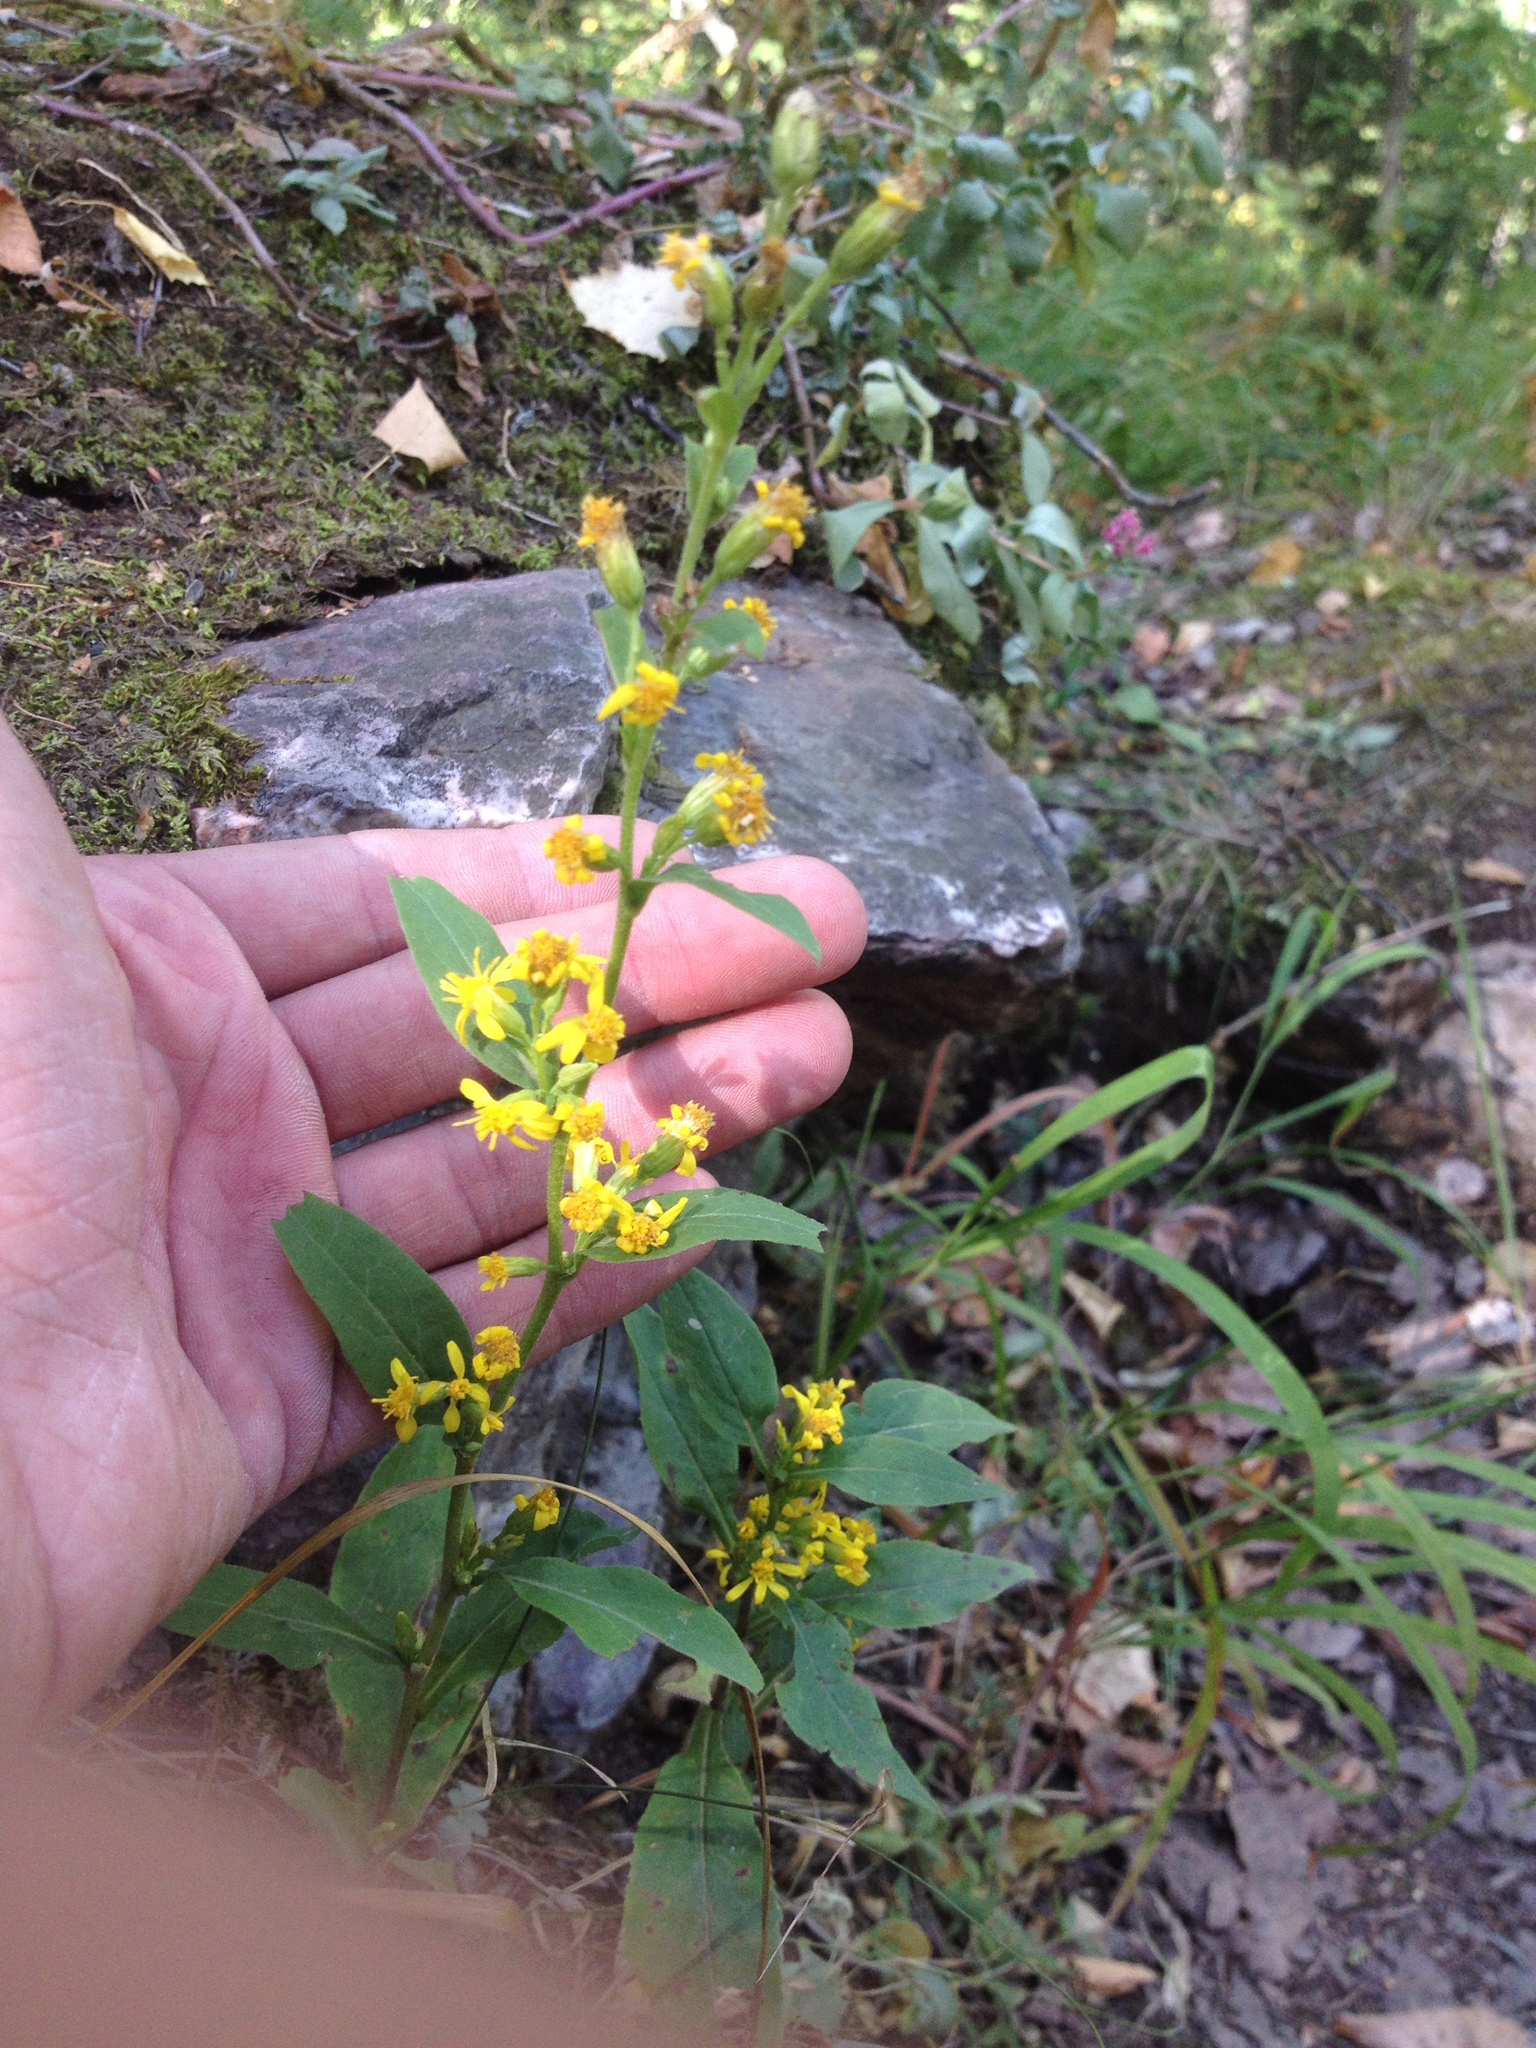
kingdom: Plantae
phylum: Tracheophyta
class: Magnoliopsida
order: Asterales
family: Asteraceae
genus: Solidago
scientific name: Solidago virgaurea
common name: Goldenrod
